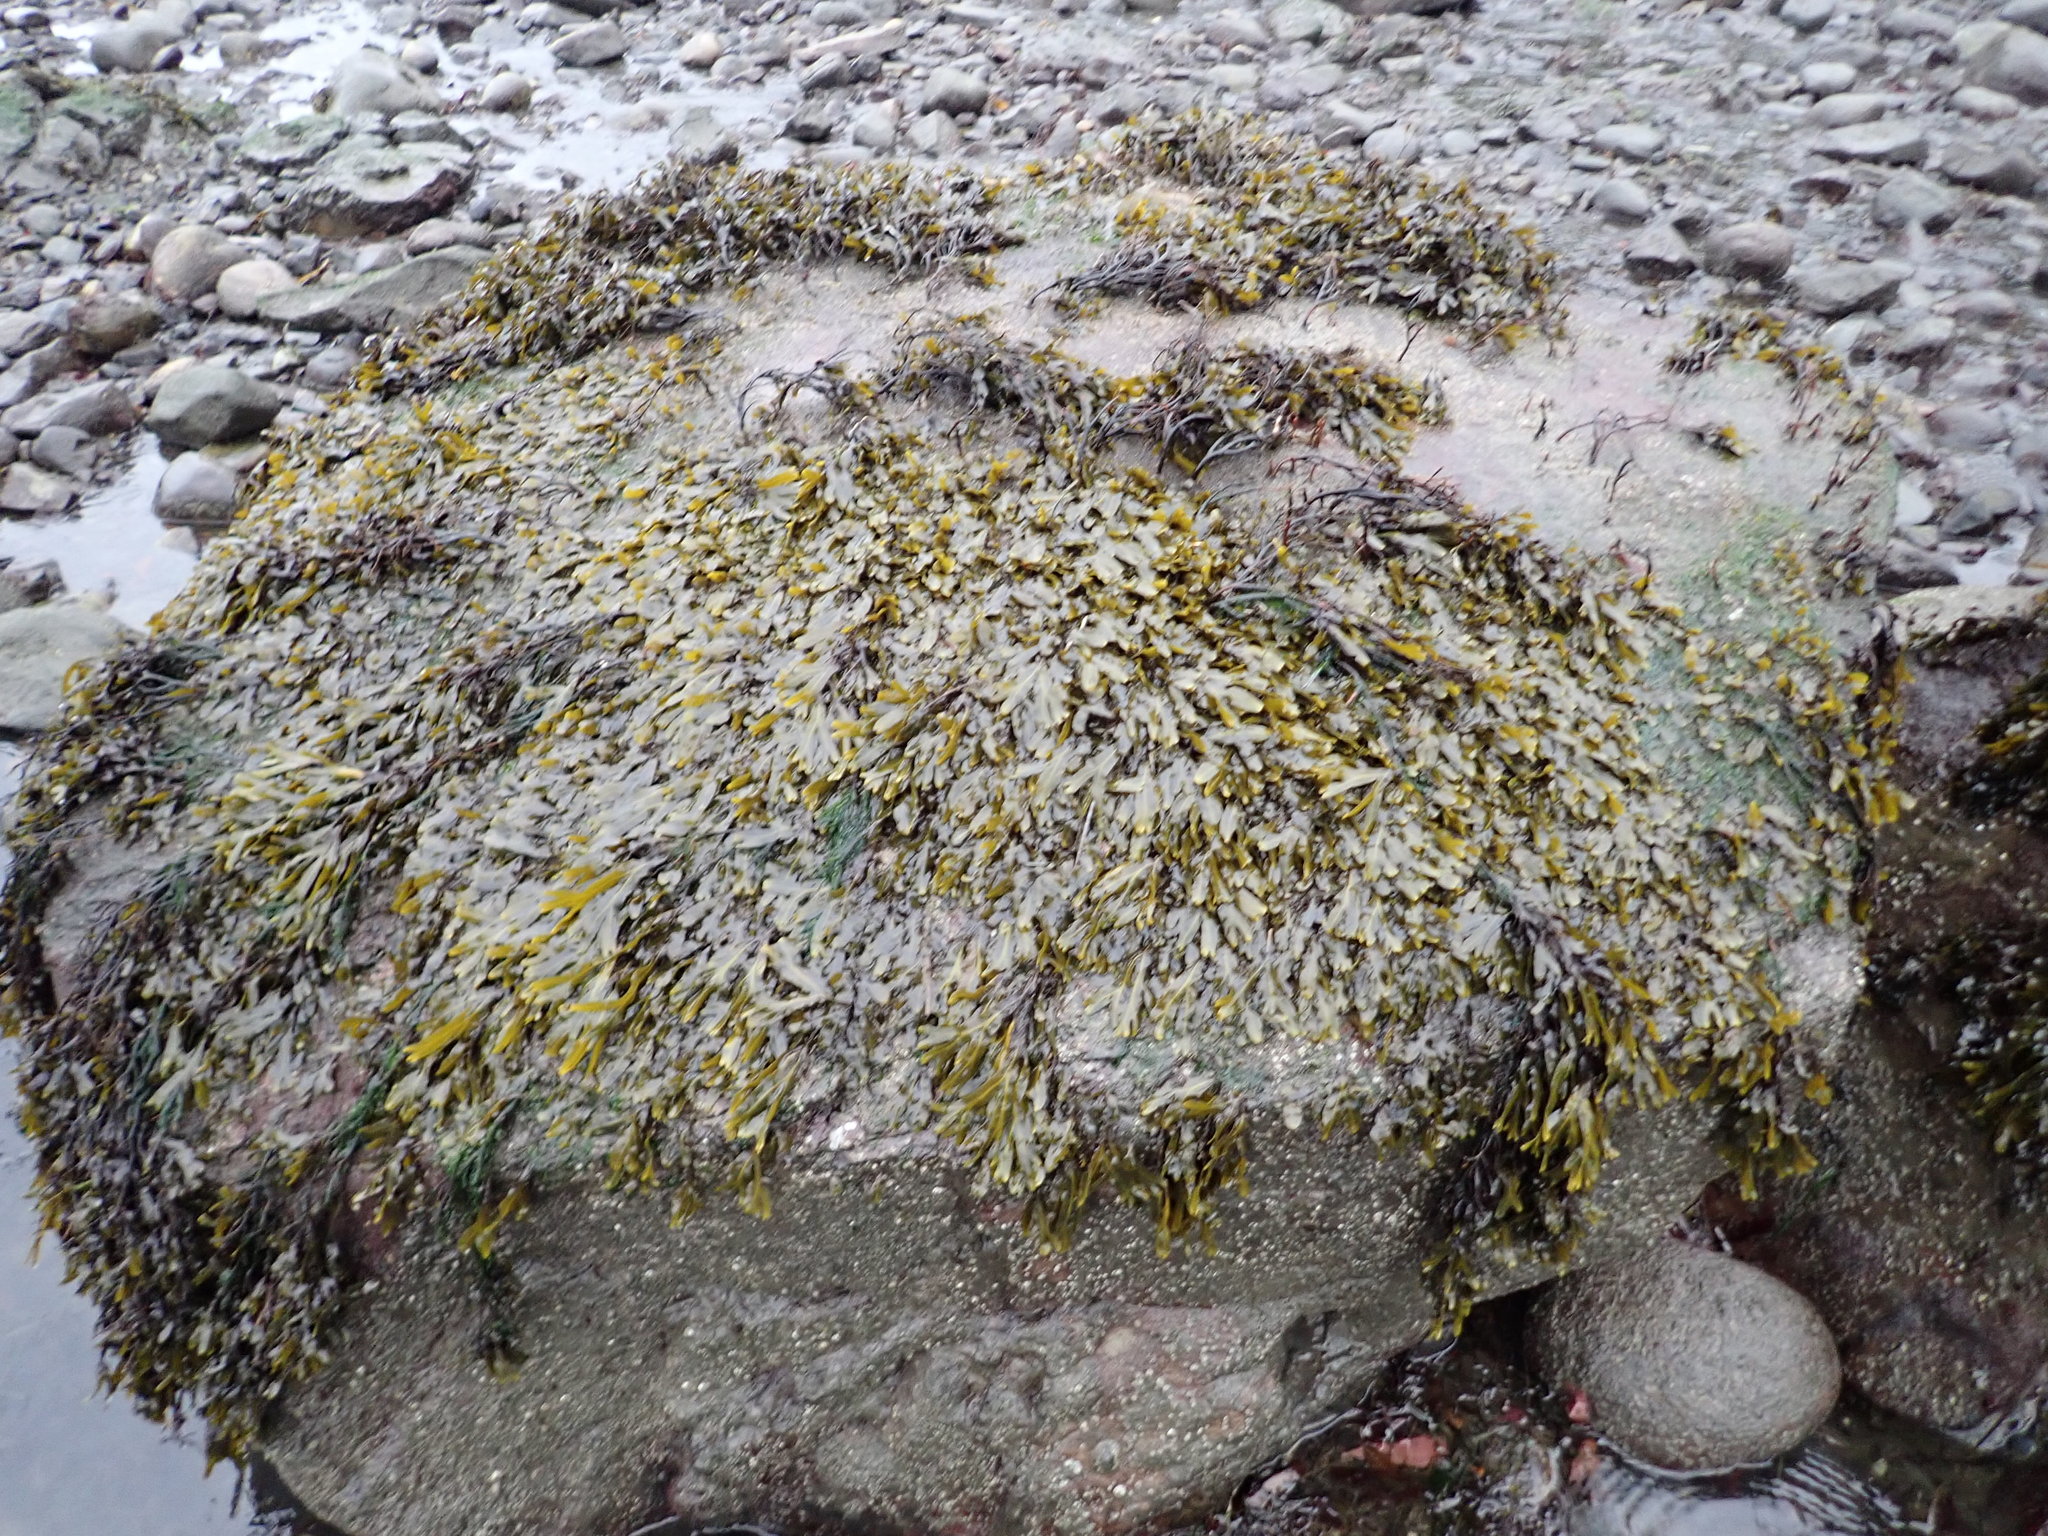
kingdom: Chromista
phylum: Ochrophyta
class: Phaeophyceae
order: Fucales
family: Fucaceae
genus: Fucus
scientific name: Fucus distichus
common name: Rockweed
